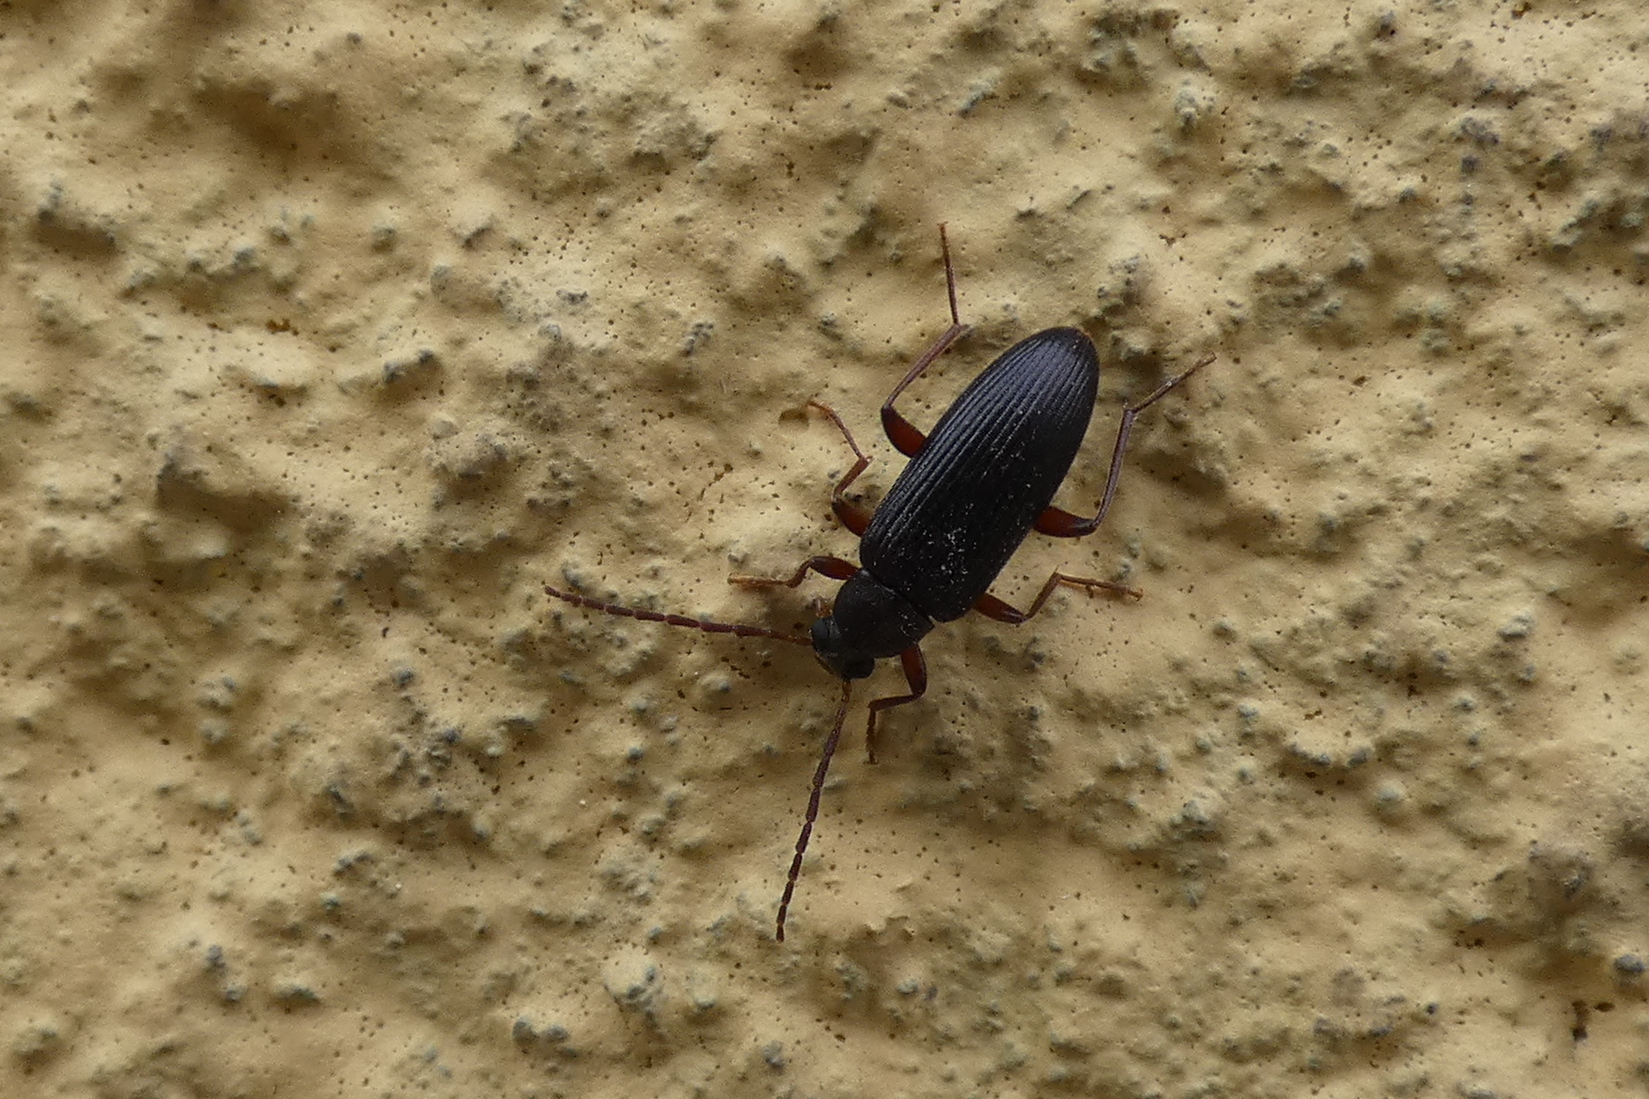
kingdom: Animalia
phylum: Arthropoda
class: Insecta
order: Coleoptera
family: Tenebrionidae
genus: Allecula
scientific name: Allecula morio
